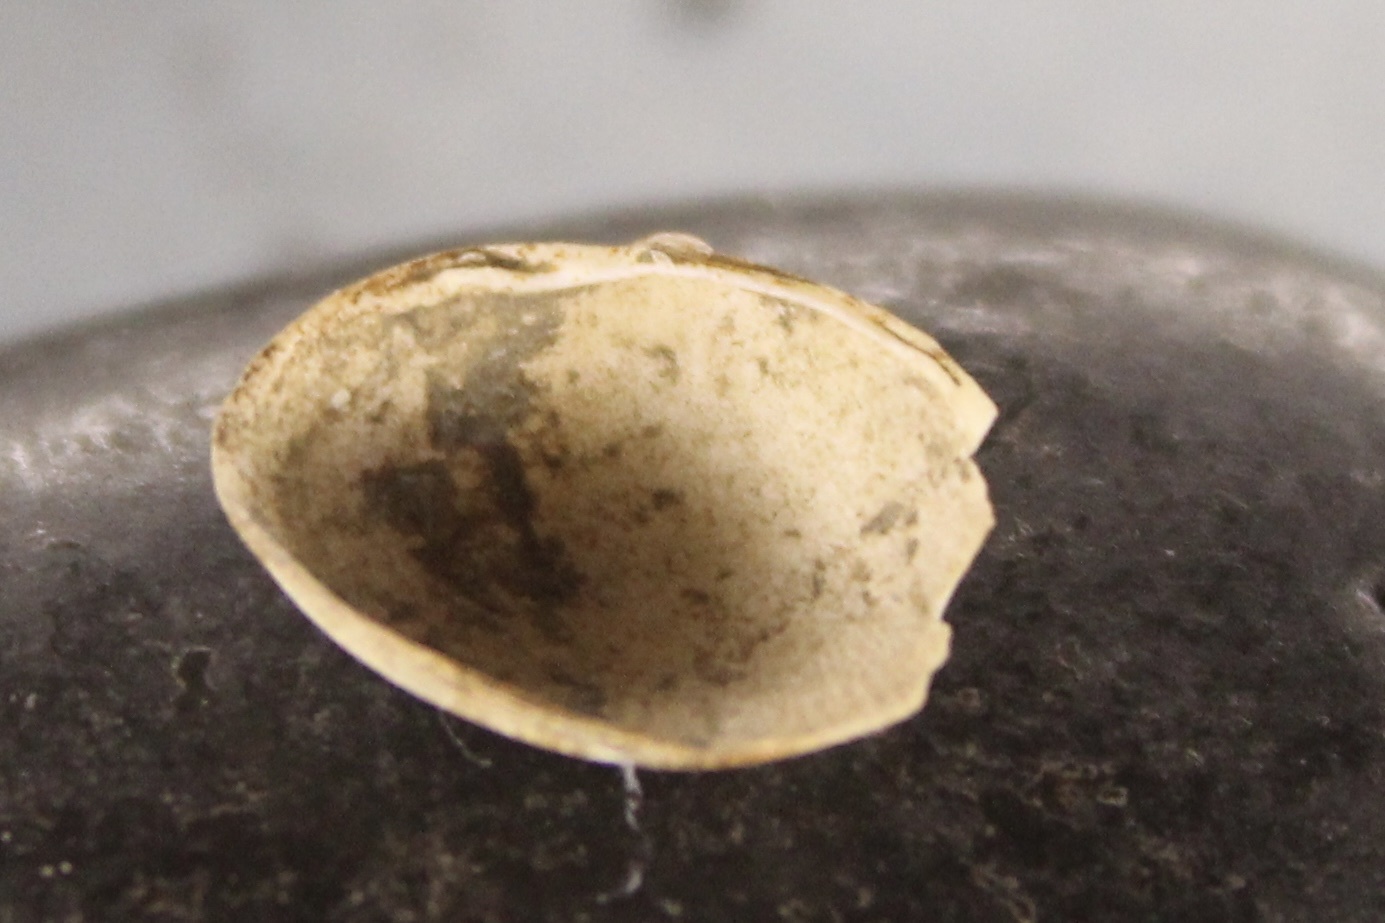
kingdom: Animalia
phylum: Mollusca
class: Bivalvia
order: Sphaeriida
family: Sphaeriidae
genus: Musculium
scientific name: Musculium lacustre
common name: Lake fingernailclam
